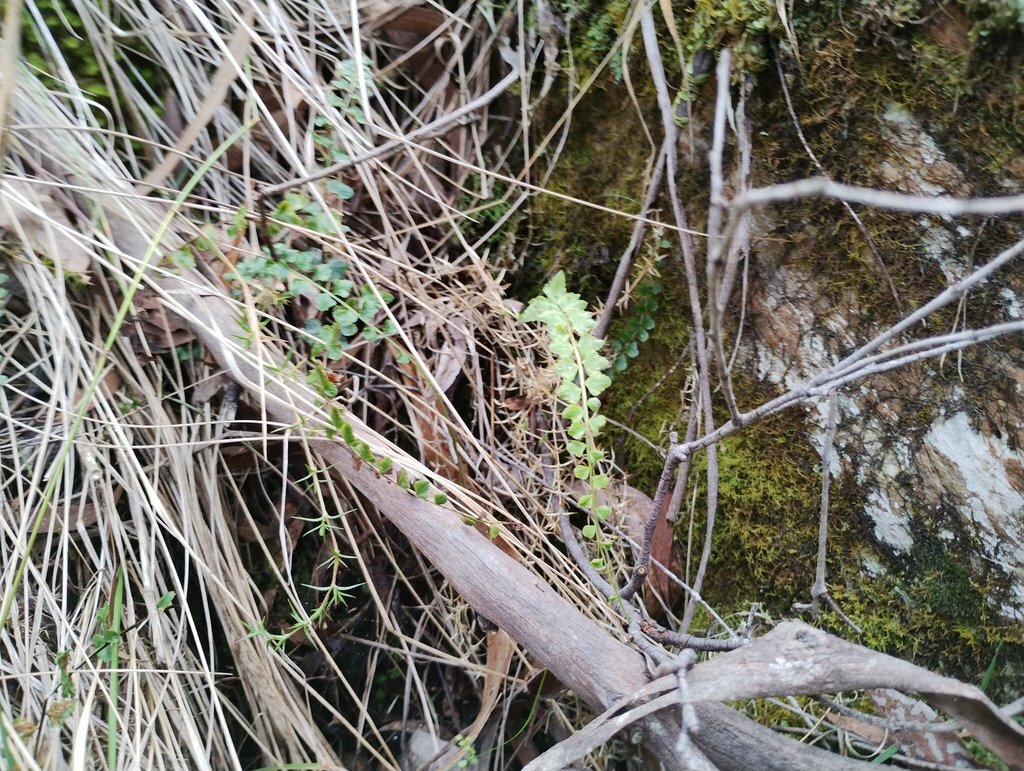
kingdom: Plantae
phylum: Tracheophyta
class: Polypodiopsida
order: Polypodiales
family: Aspleniaceae
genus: Asplenium
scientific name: Asplenium flabellifolium
